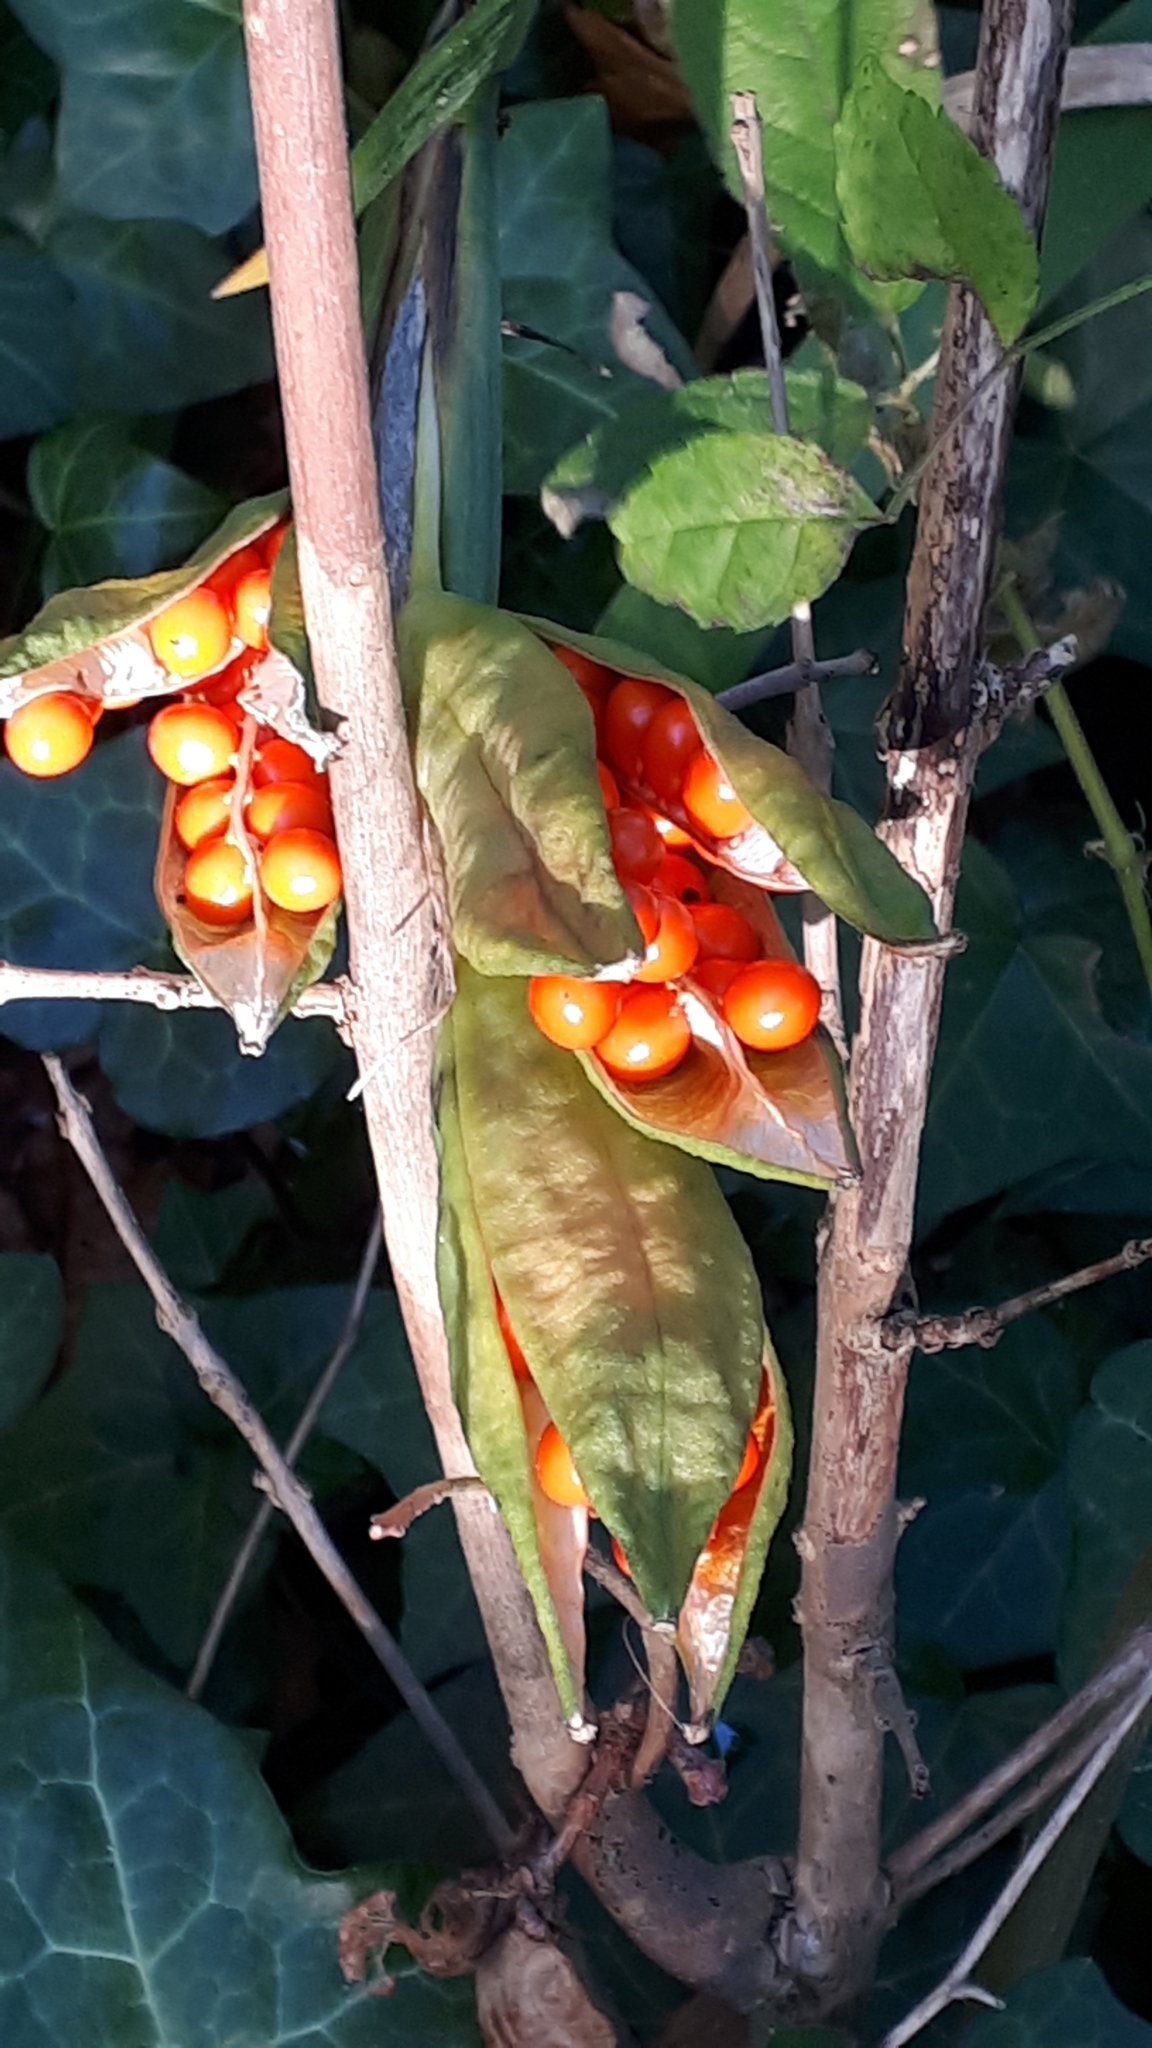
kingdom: Plantae
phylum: Tracheophyta
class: Liliopsida
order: Asparagales
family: Iridaceae
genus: Iris
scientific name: Iris foetidissima
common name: Stinking iris
